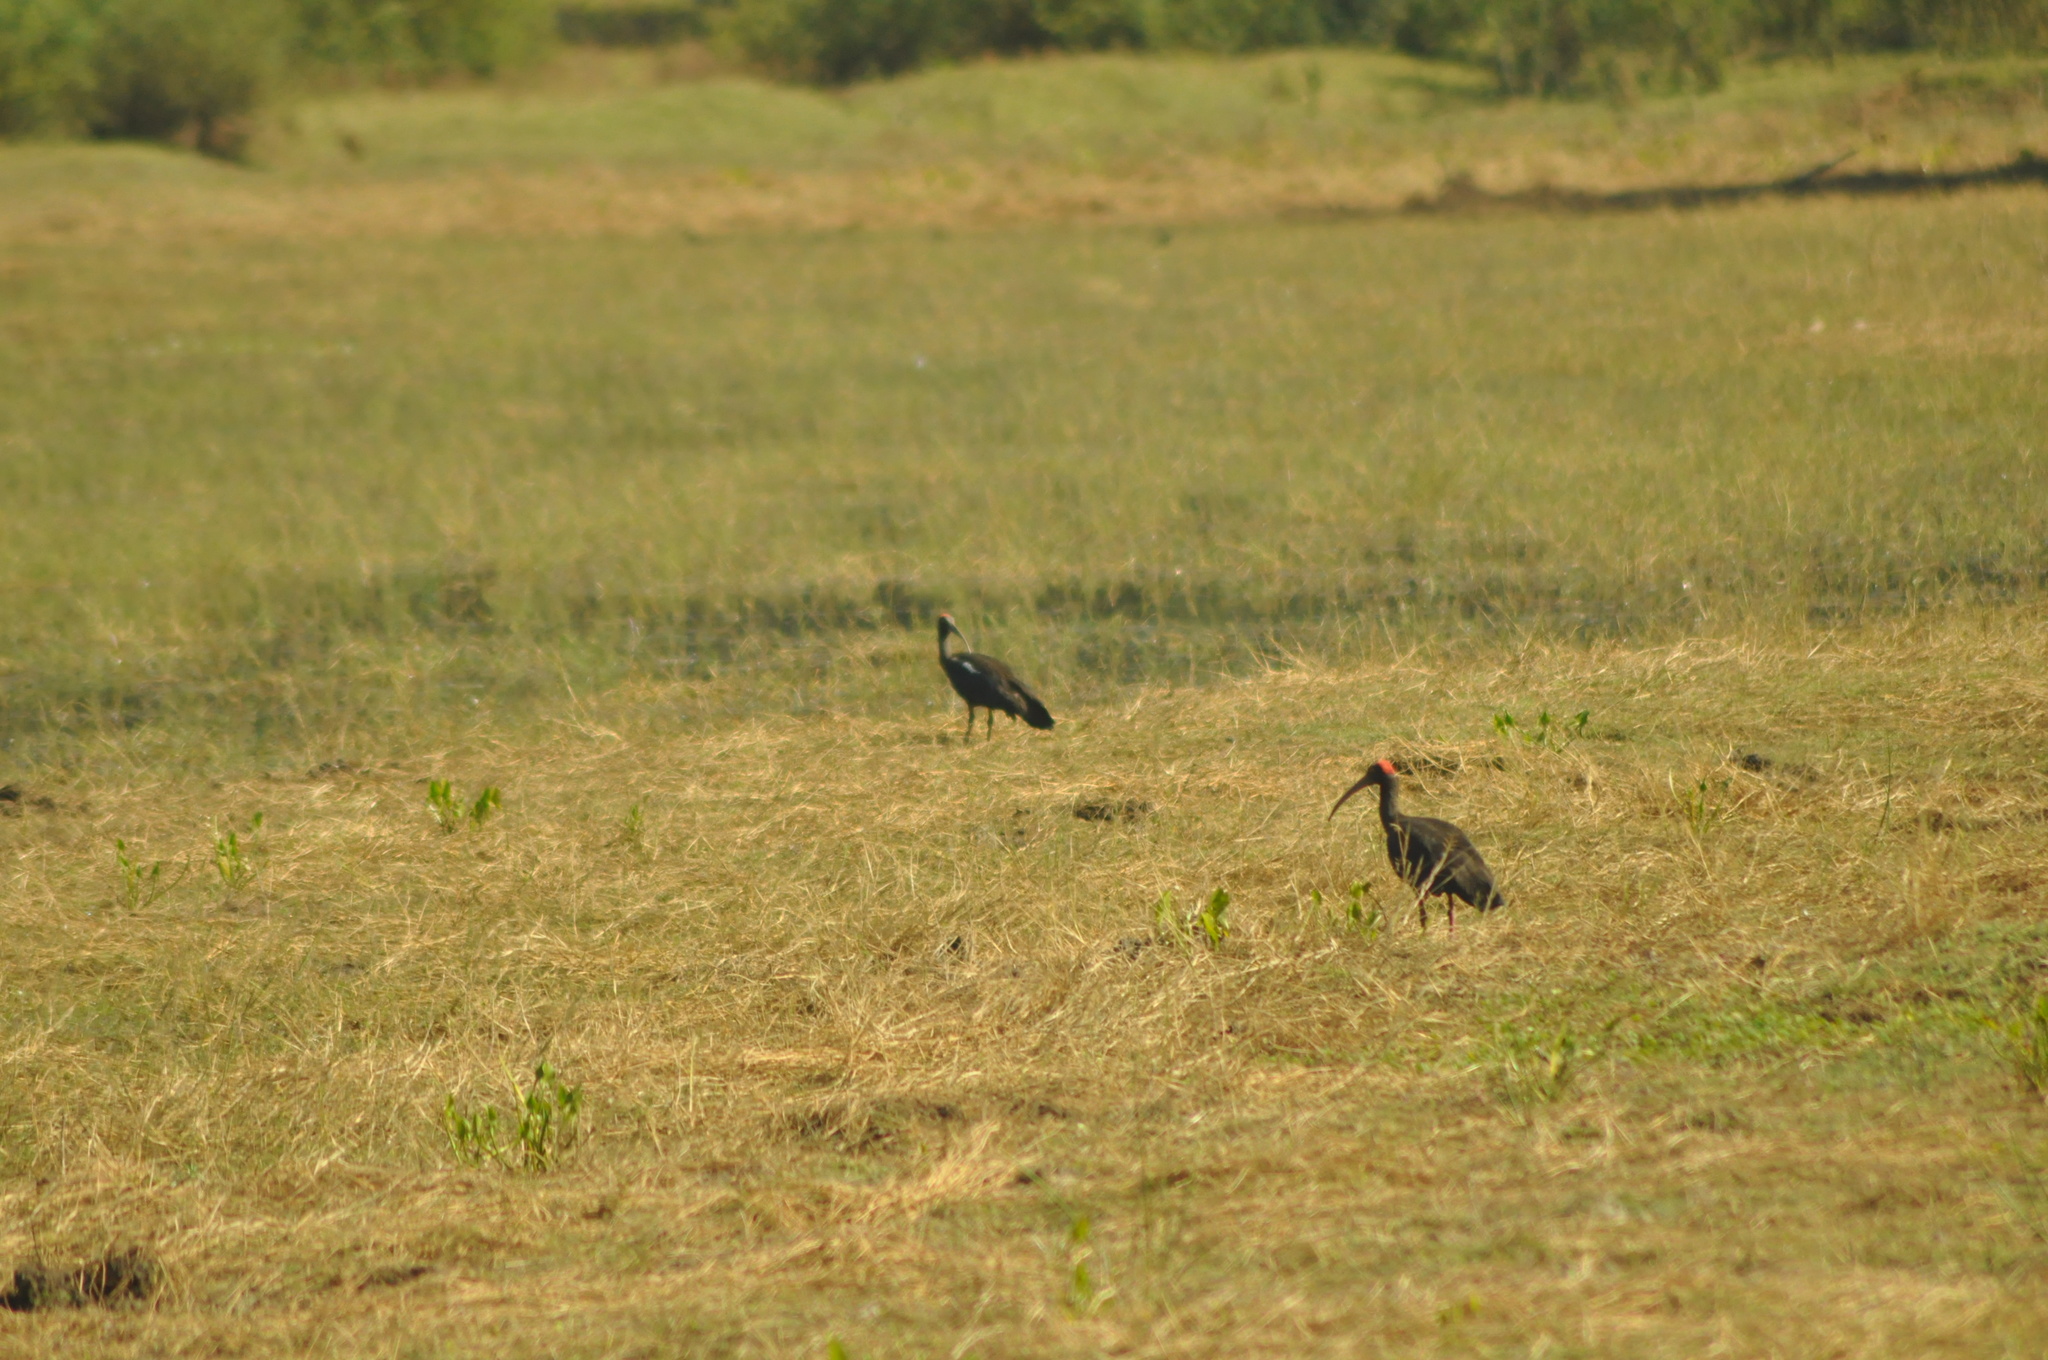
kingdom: Animalia
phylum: Chordata
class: Aves
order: Pelecaniformes
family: Threskiornithidae
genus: Pseudibis
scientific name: Pseudibis papillosa
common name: Red-naped ibis
